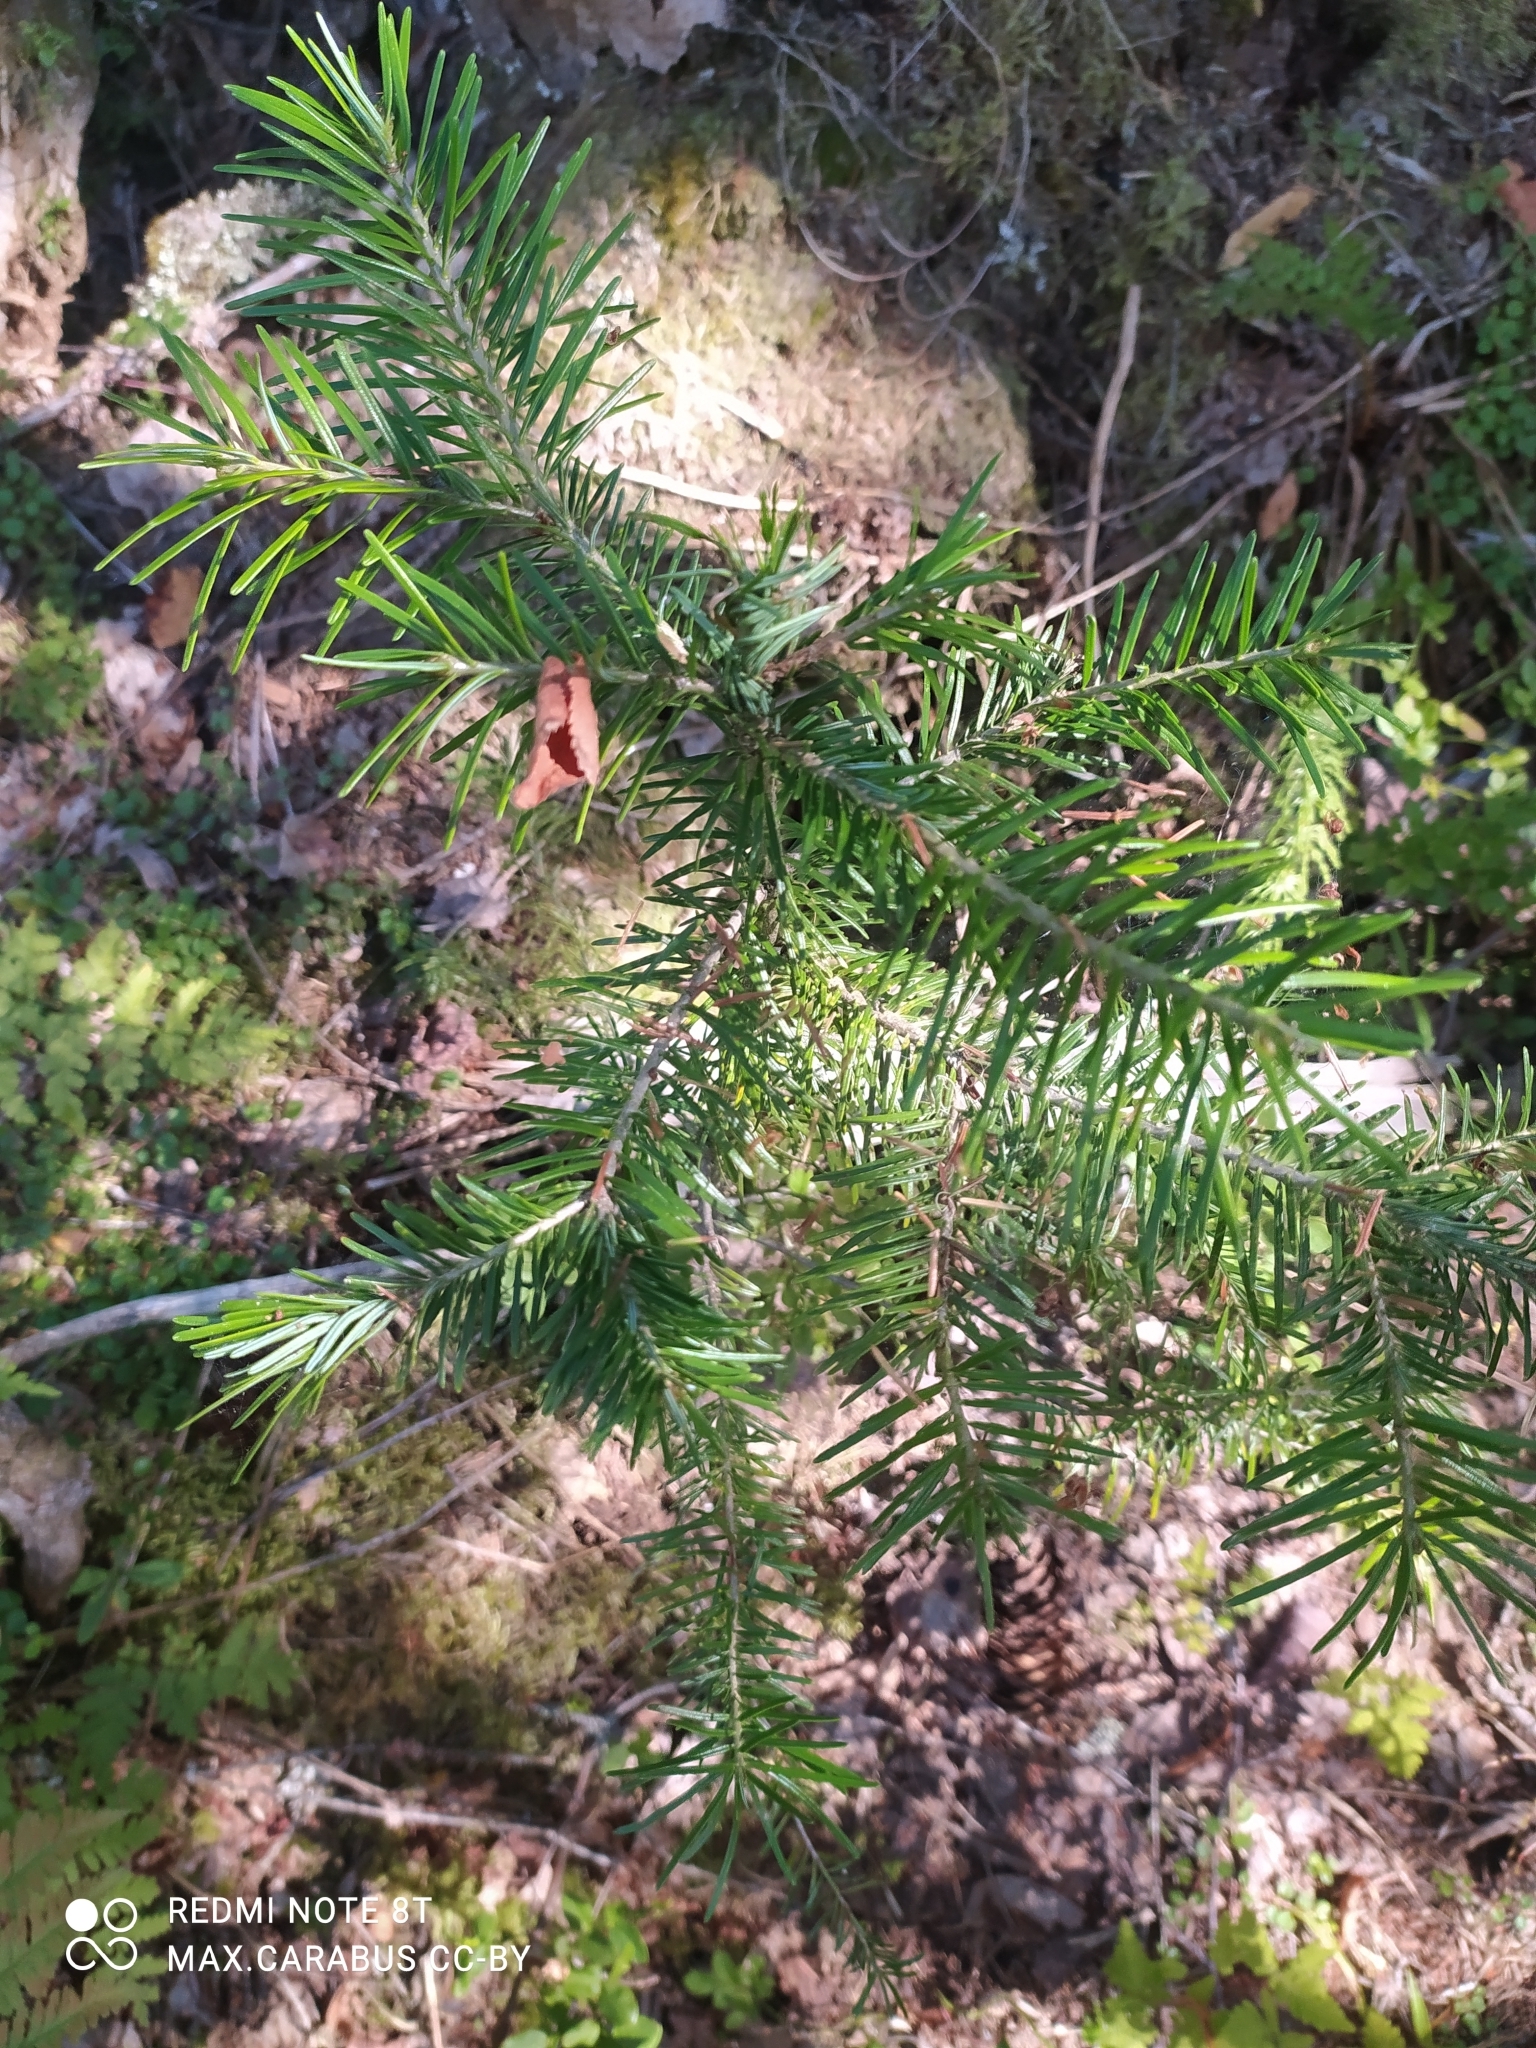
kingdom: Plantae
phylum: Tracheophyta
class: Pinopsida
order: Pinales
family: Pinaceae
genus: Abies
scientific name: Abies sibirica
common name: Siberian fir
